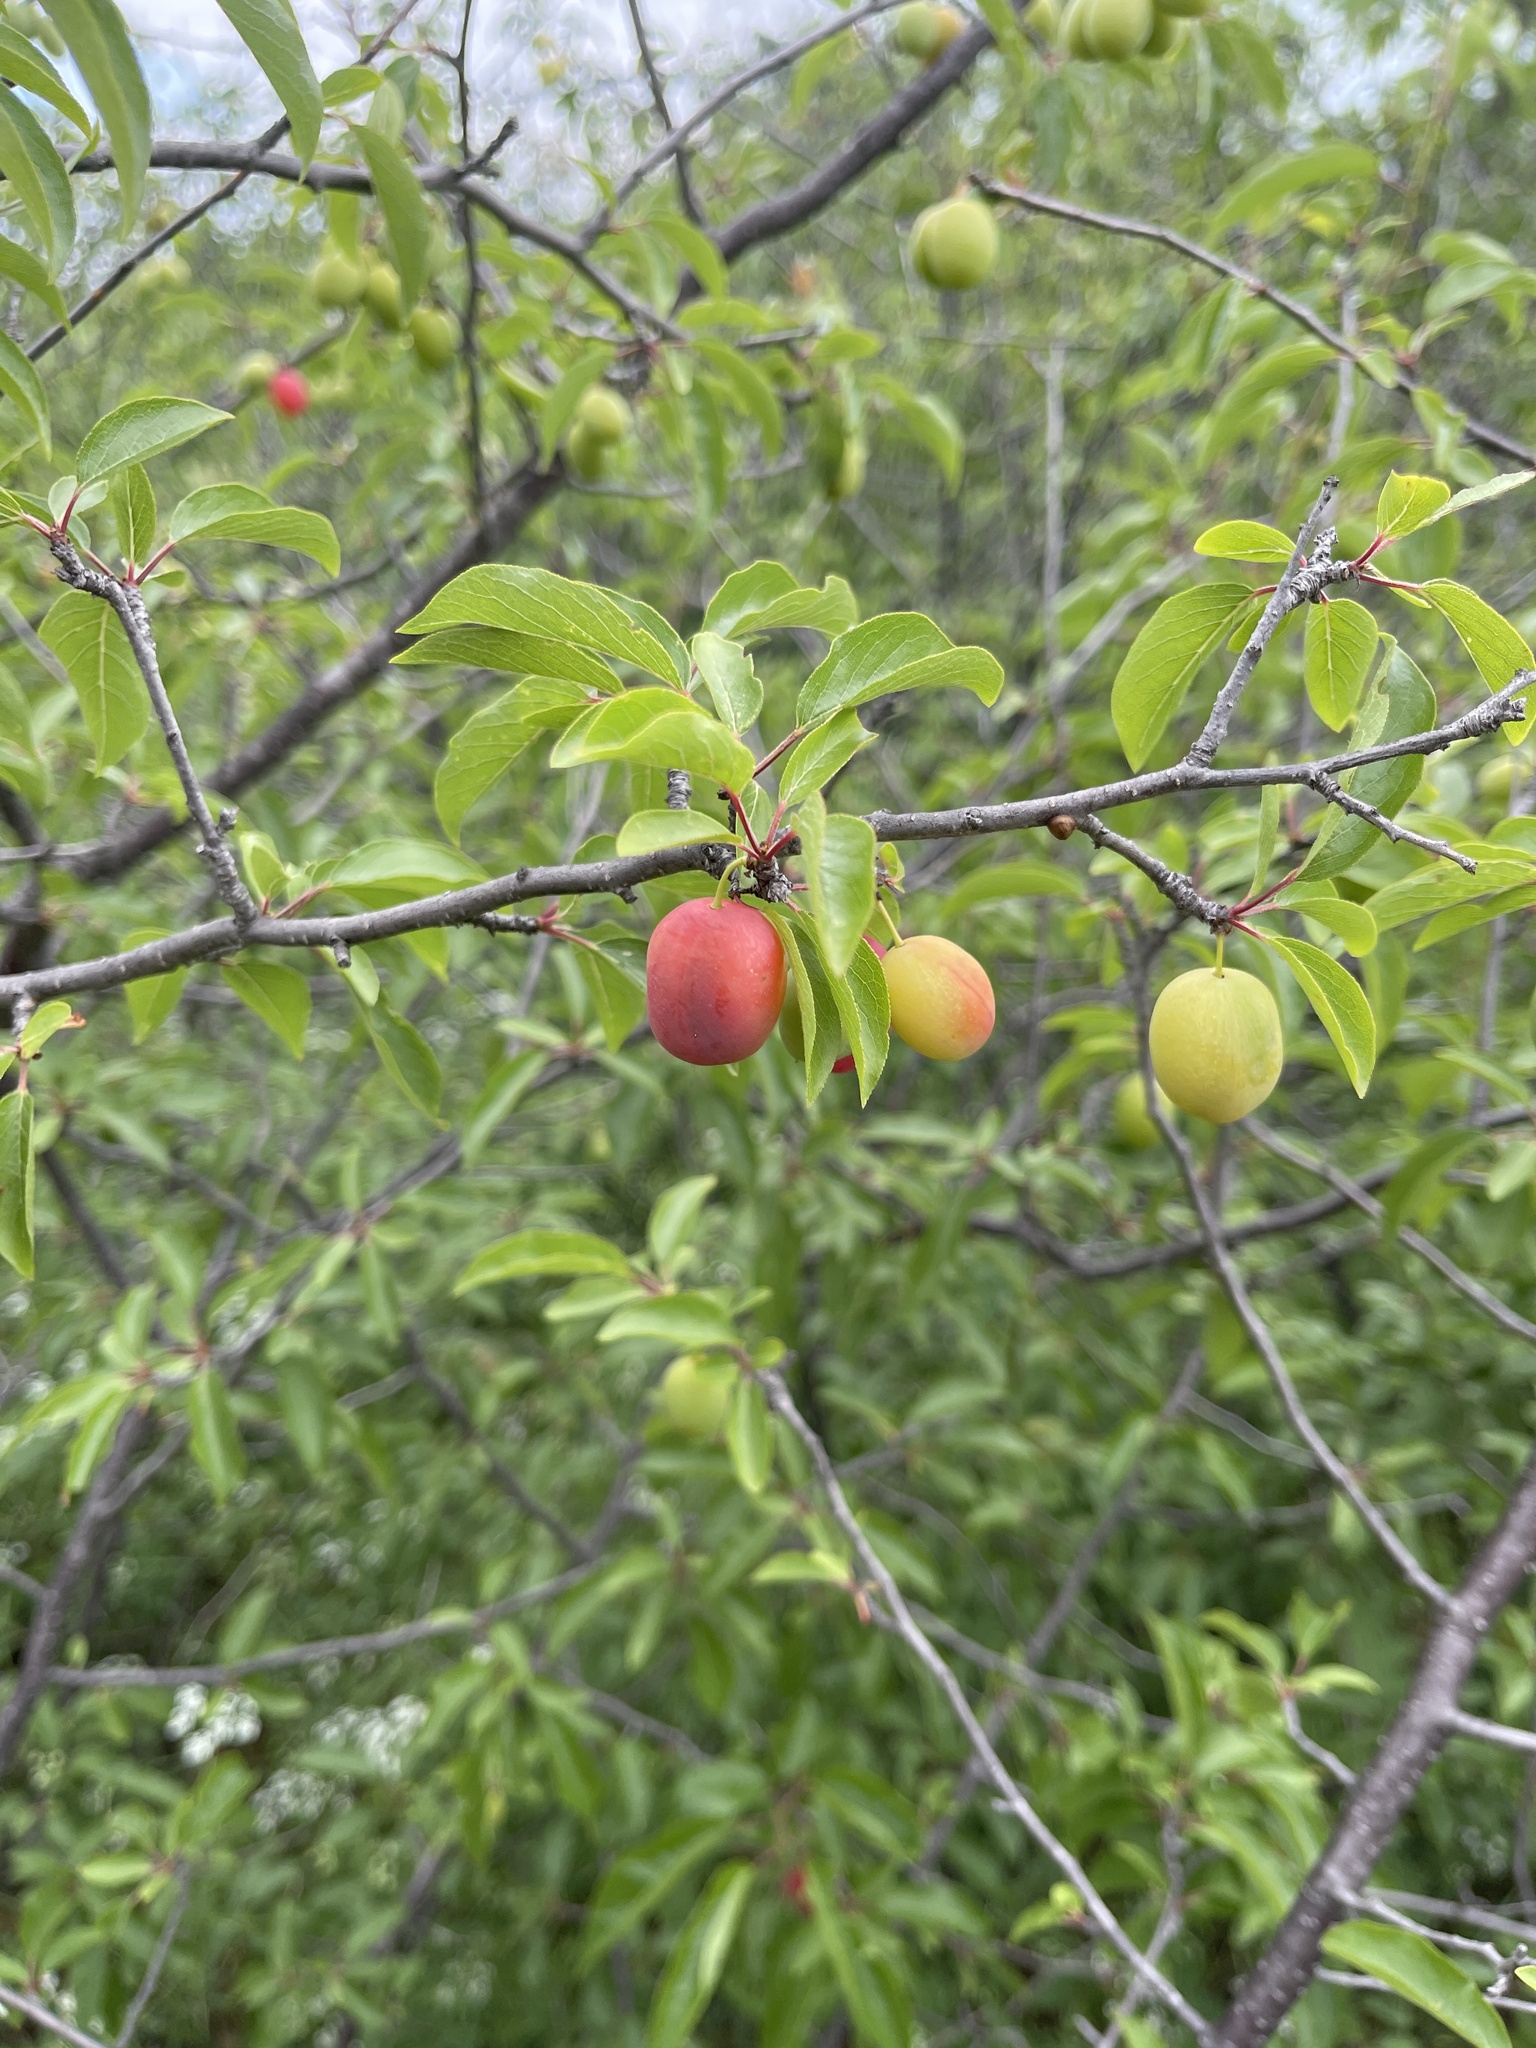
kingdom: Plantae
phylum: Tracheophyta
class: Magnoliopsida
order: Rosales
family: Rosaceae
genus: Prunus
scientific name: Prunus angustifolia
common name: Cherokee plum
